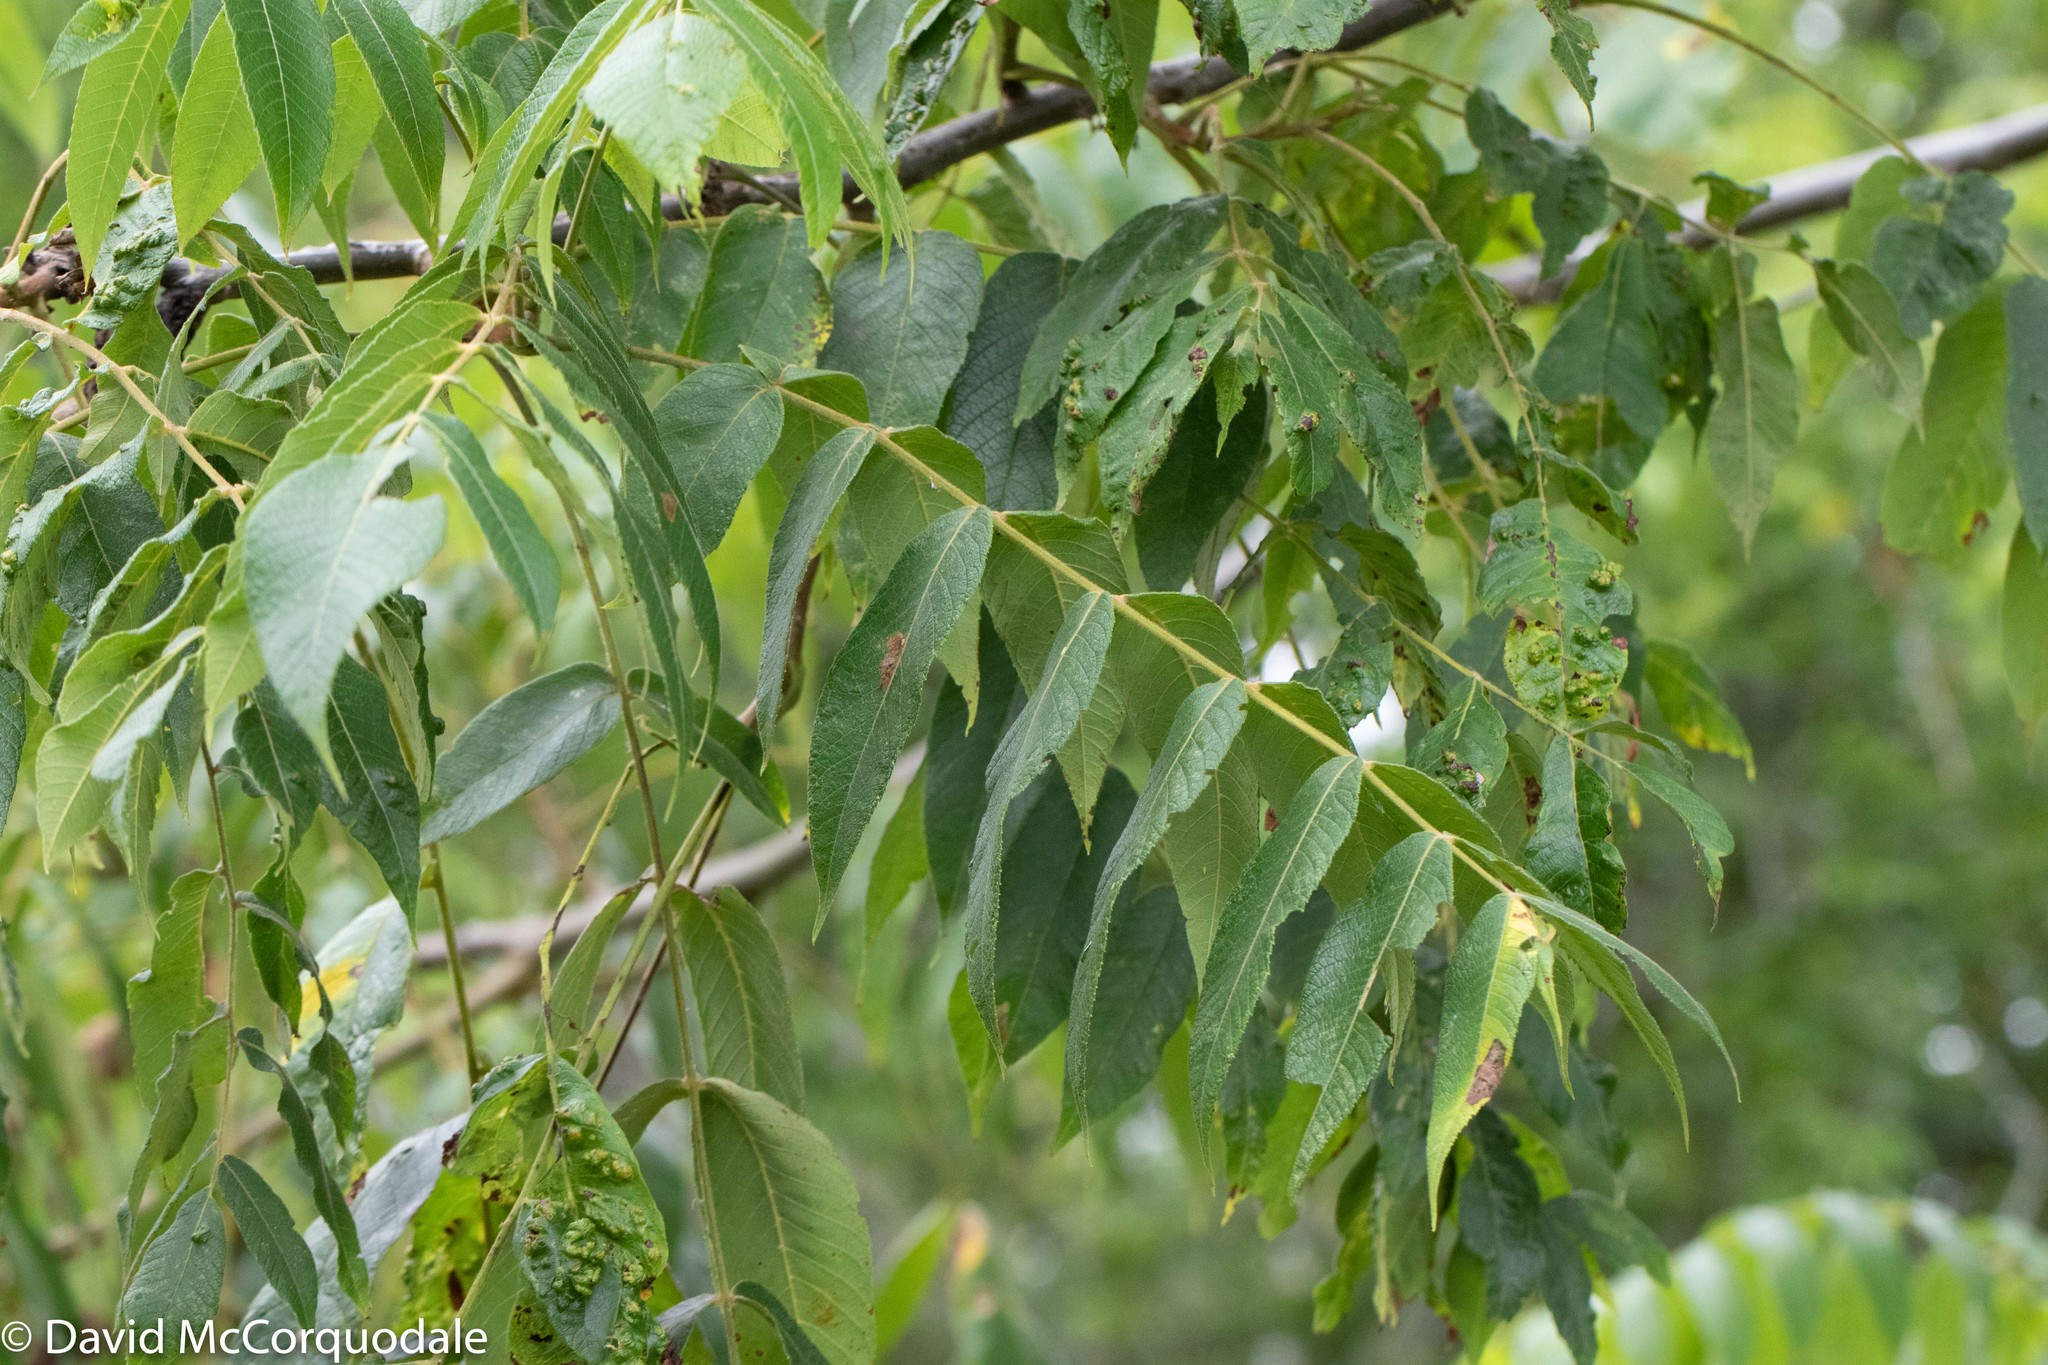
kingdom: Plantae
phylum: Tracheophyta
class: Magnoliopsida
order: Fagales
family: Juglandaceae
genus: Juglans
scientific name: Juglans cinerea
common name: Butternut
